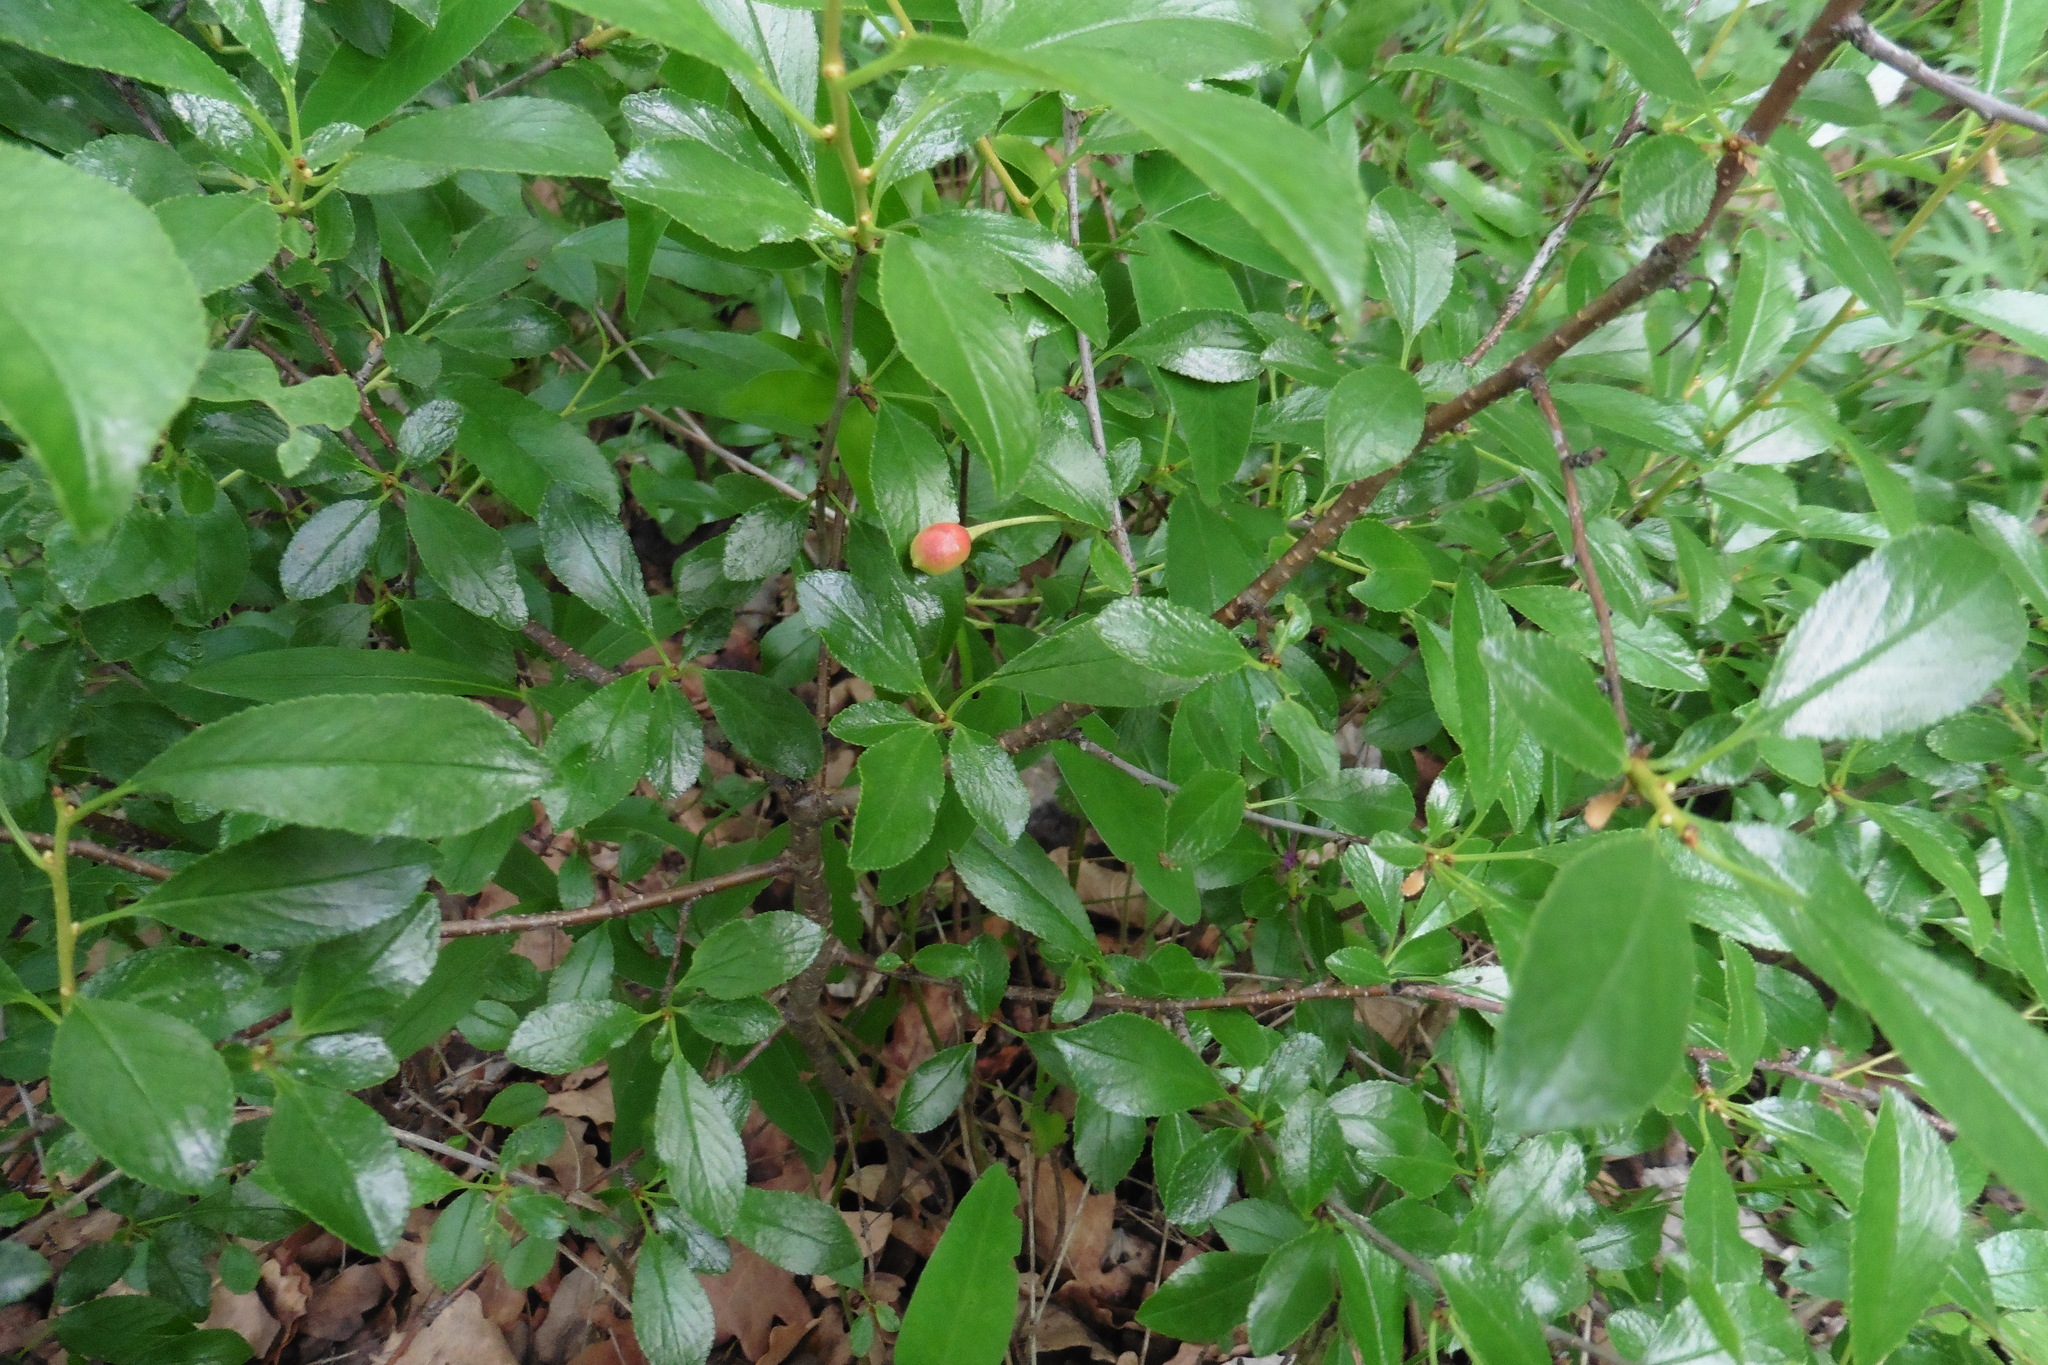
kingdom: Plantae
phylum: Tracheophyta
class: Magnoliopsida
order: Rosales
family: Rosaceae
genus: Prunus
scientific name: Prunus fruticosa
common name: European dwarf cherry
